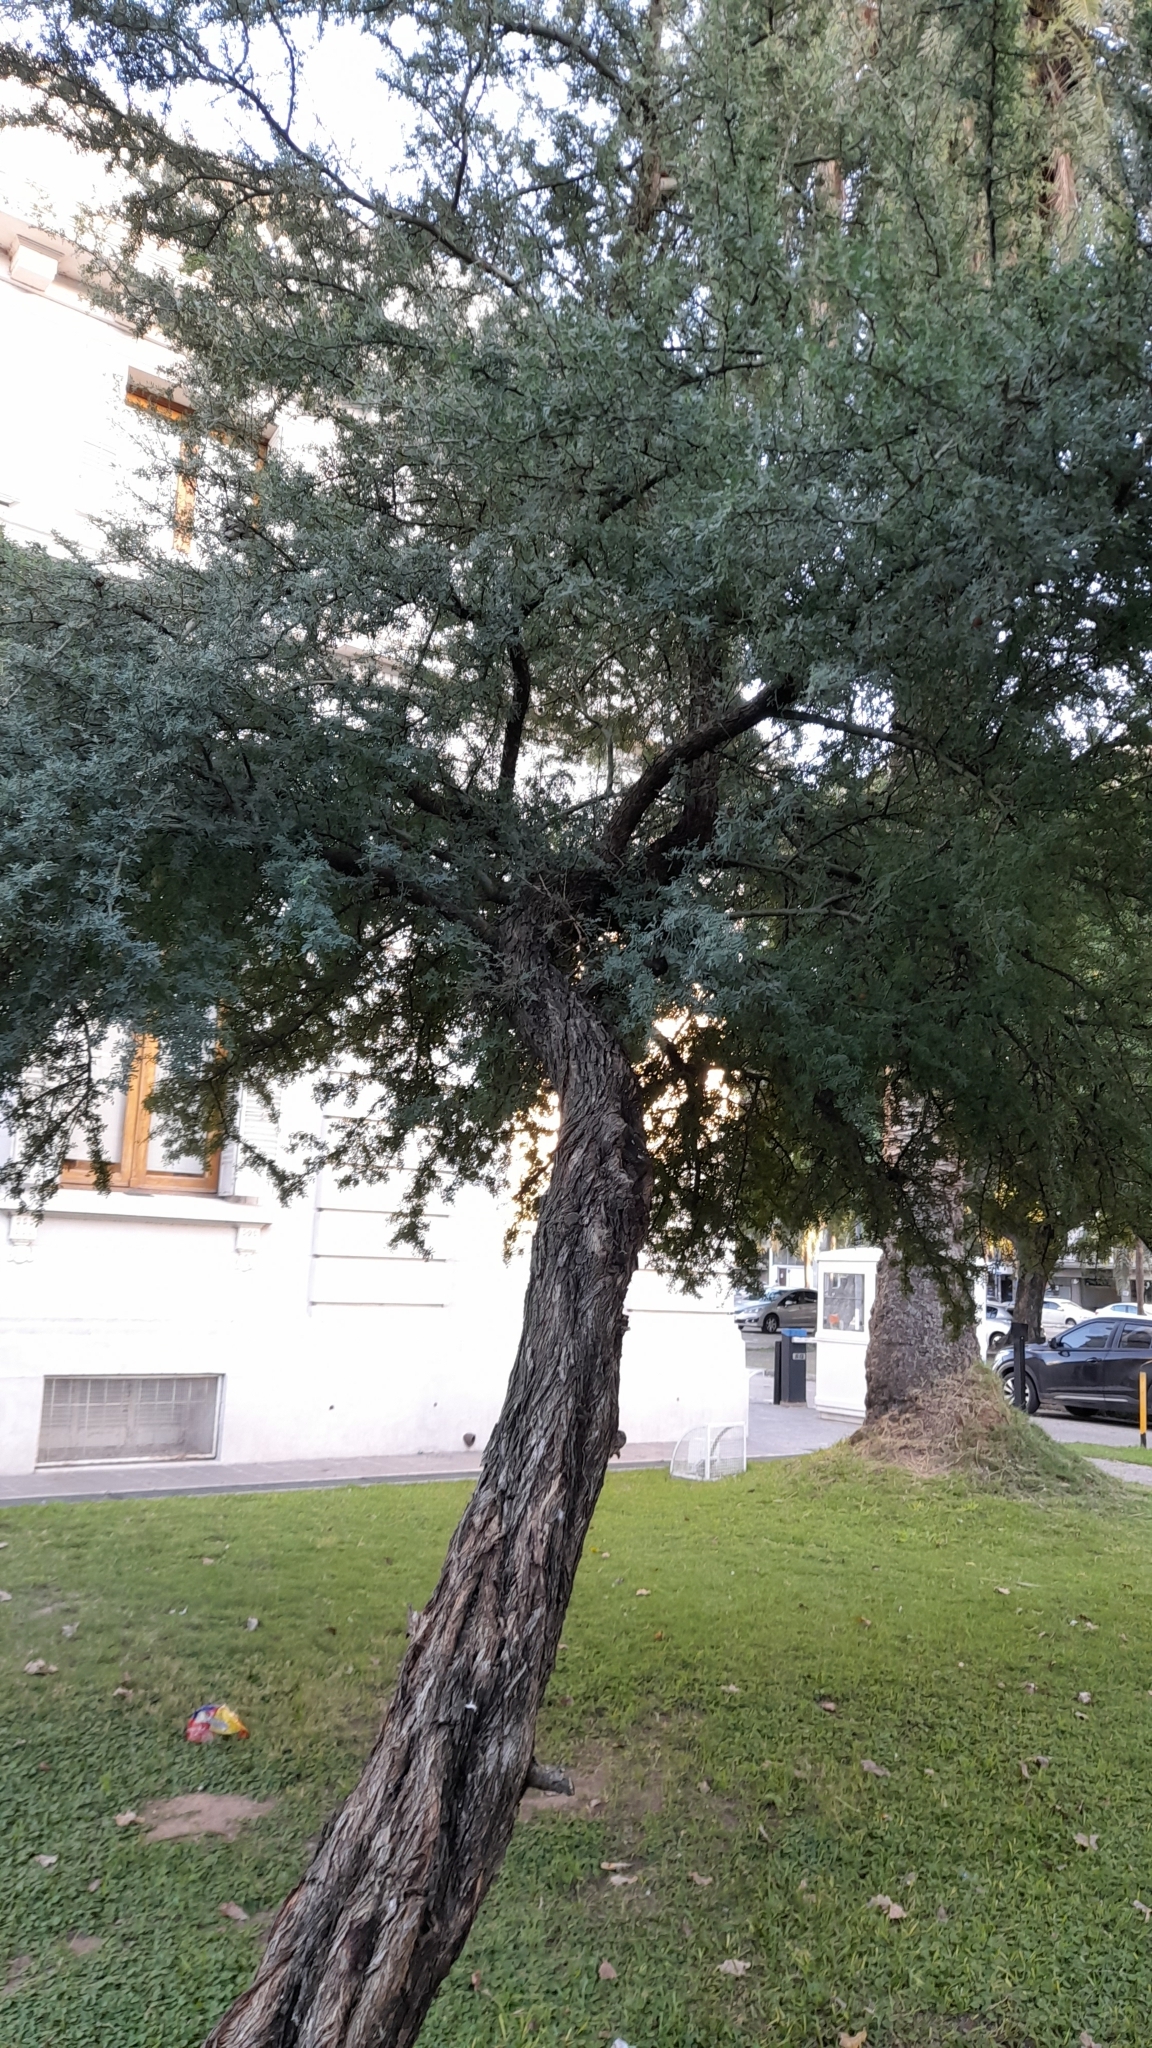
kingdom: Plantae
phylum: Tracheophyta
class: Magnoliopsida
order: Fabales
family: Fabaceae
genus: Geoffroea
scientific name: Geoffroea decorticans
